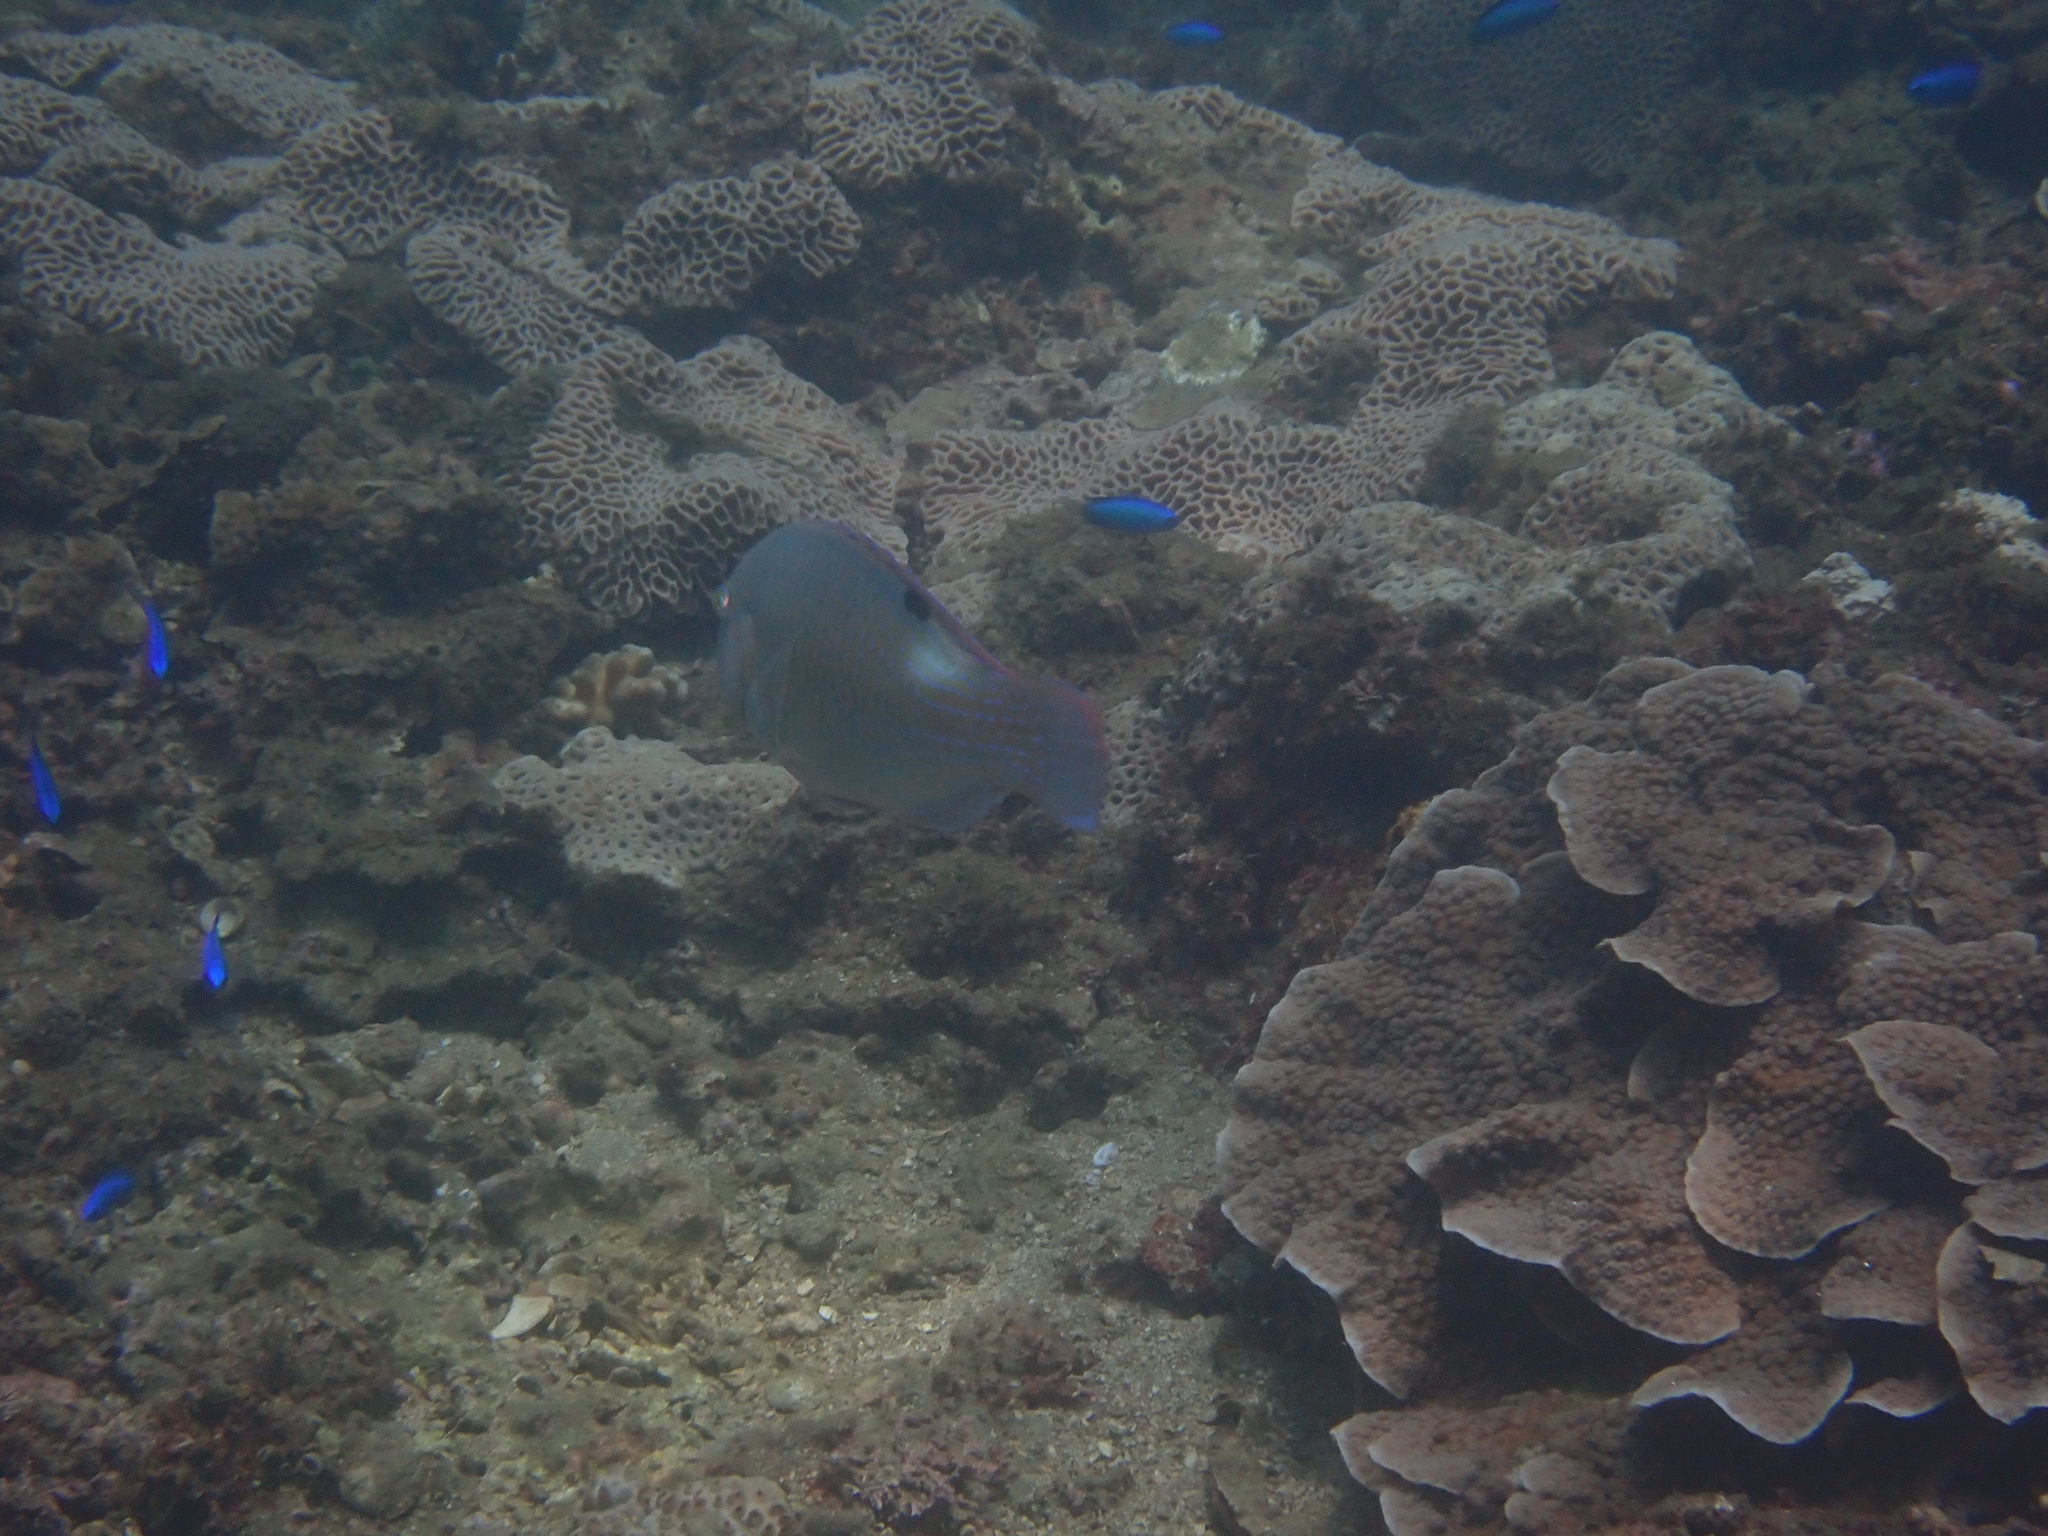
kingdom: Animalia
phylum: Chordata
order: Perciformes
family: Labridae
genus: Choerodon
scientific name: Choerodon schoenleinii
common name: Blackspot tuskfish
